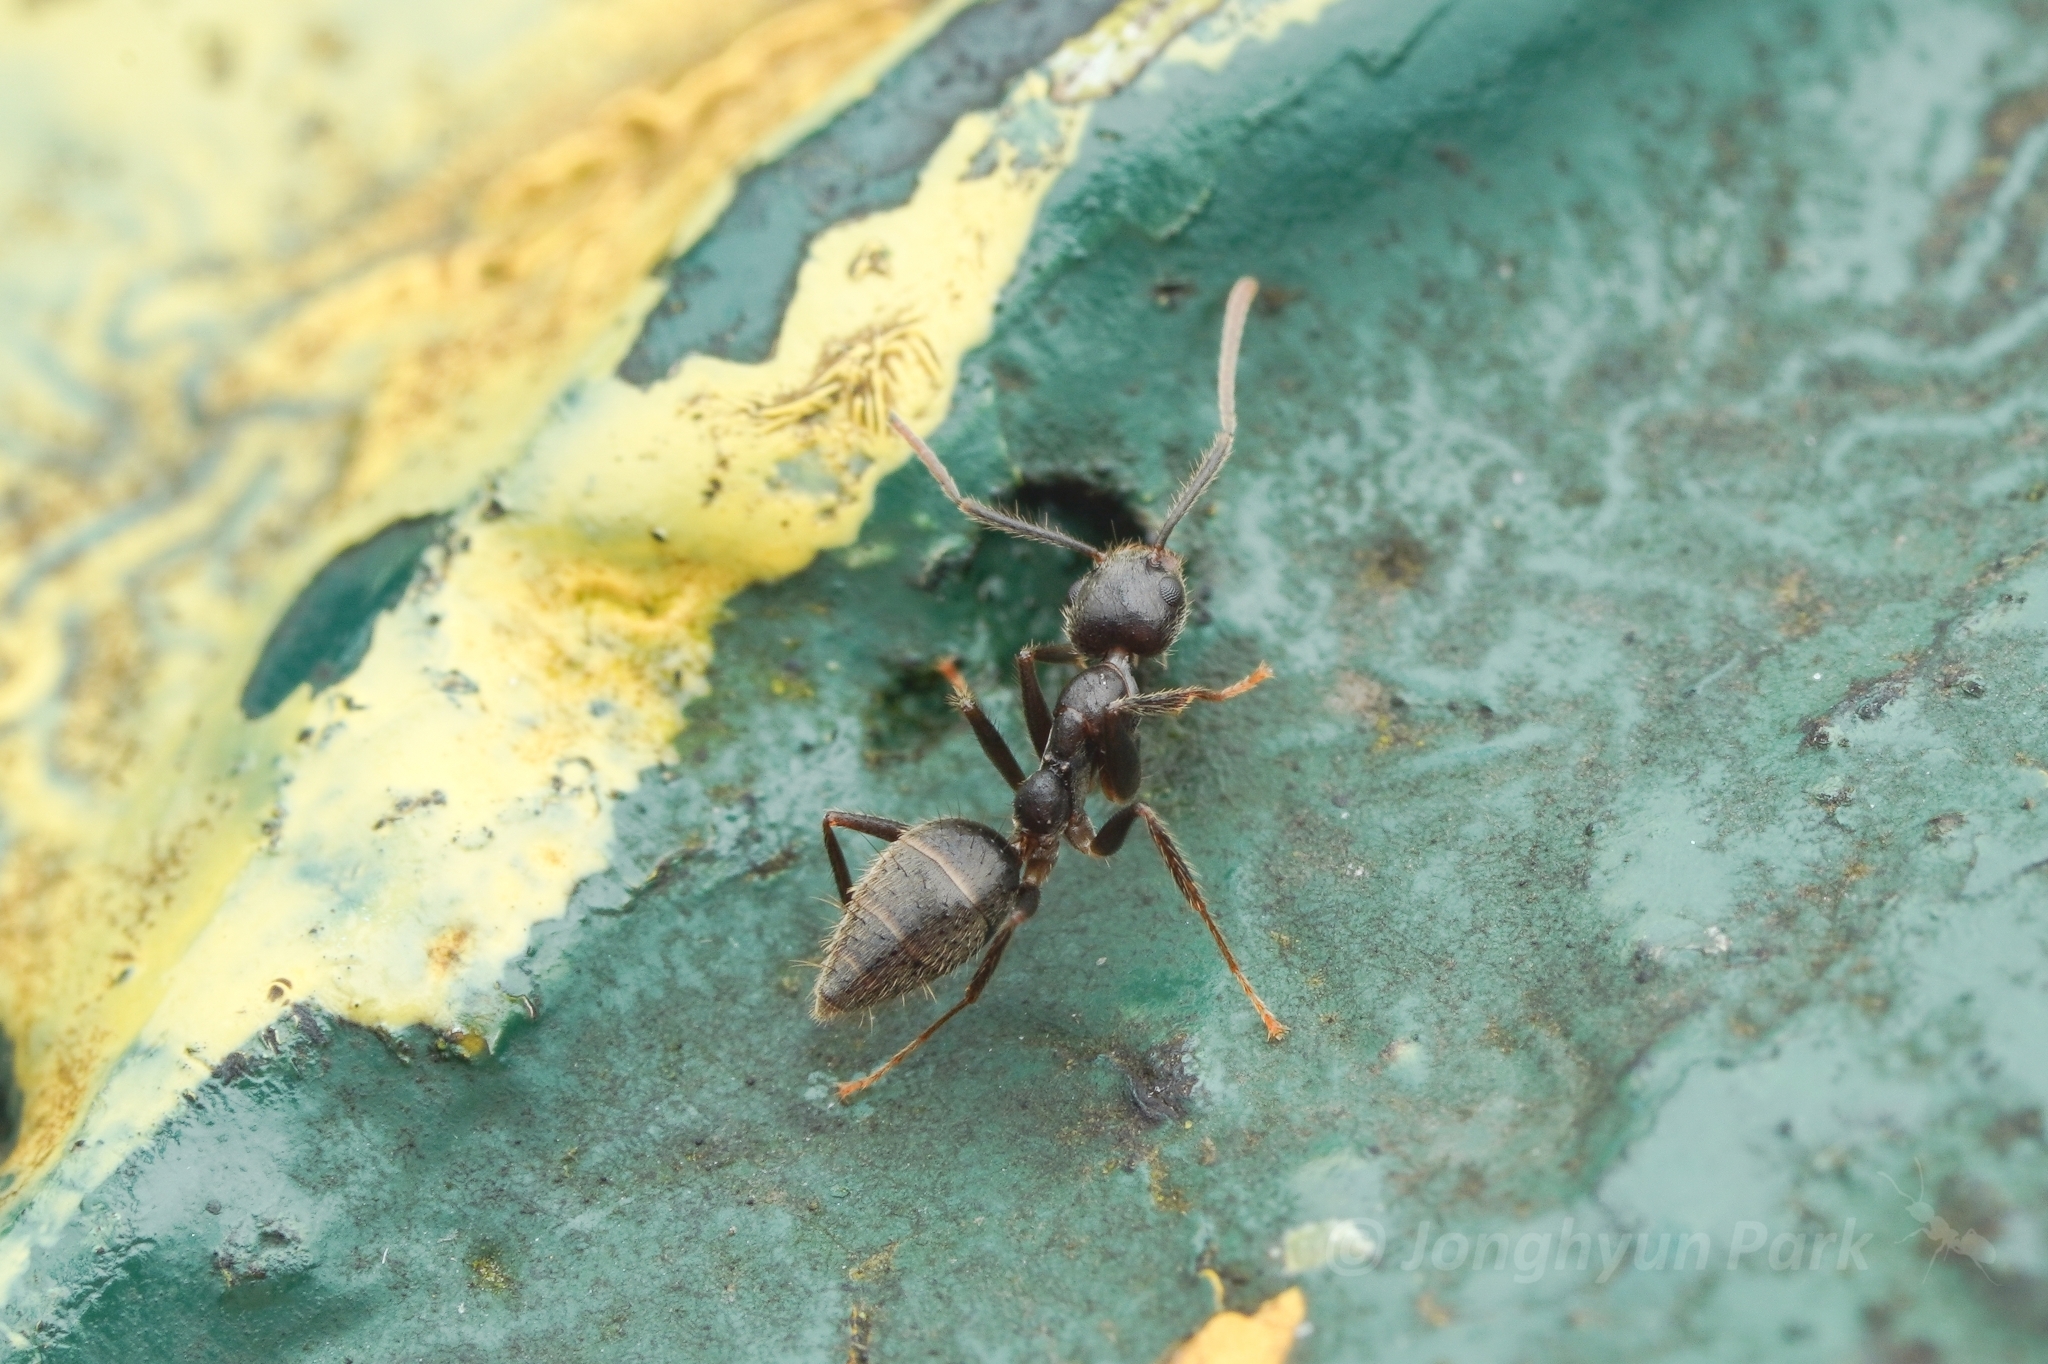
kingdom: Animalia
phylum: Arthropoda
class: Insecta
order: Hymenoptera
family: Formicidae
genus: Technomyrmex
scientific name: Technomyrmex grandis
